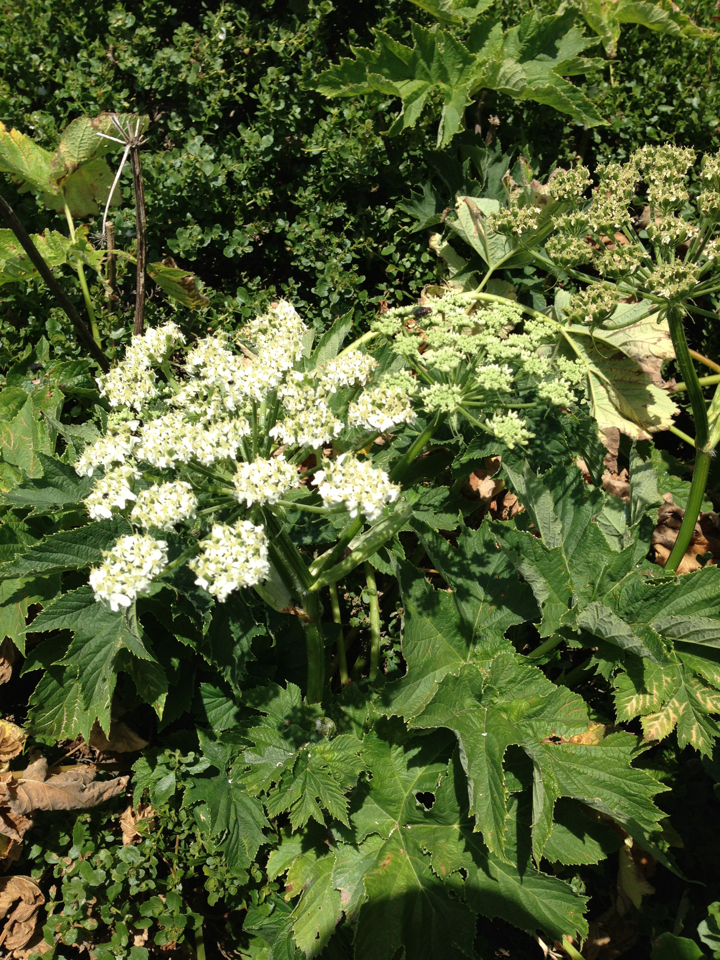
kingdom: Plantae
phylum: Tracheophyta
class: Magnoliopsida
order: Apiales
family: Apiaceae
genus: Heracleum
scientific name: Heracleum maximum
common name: American cow parsnip
